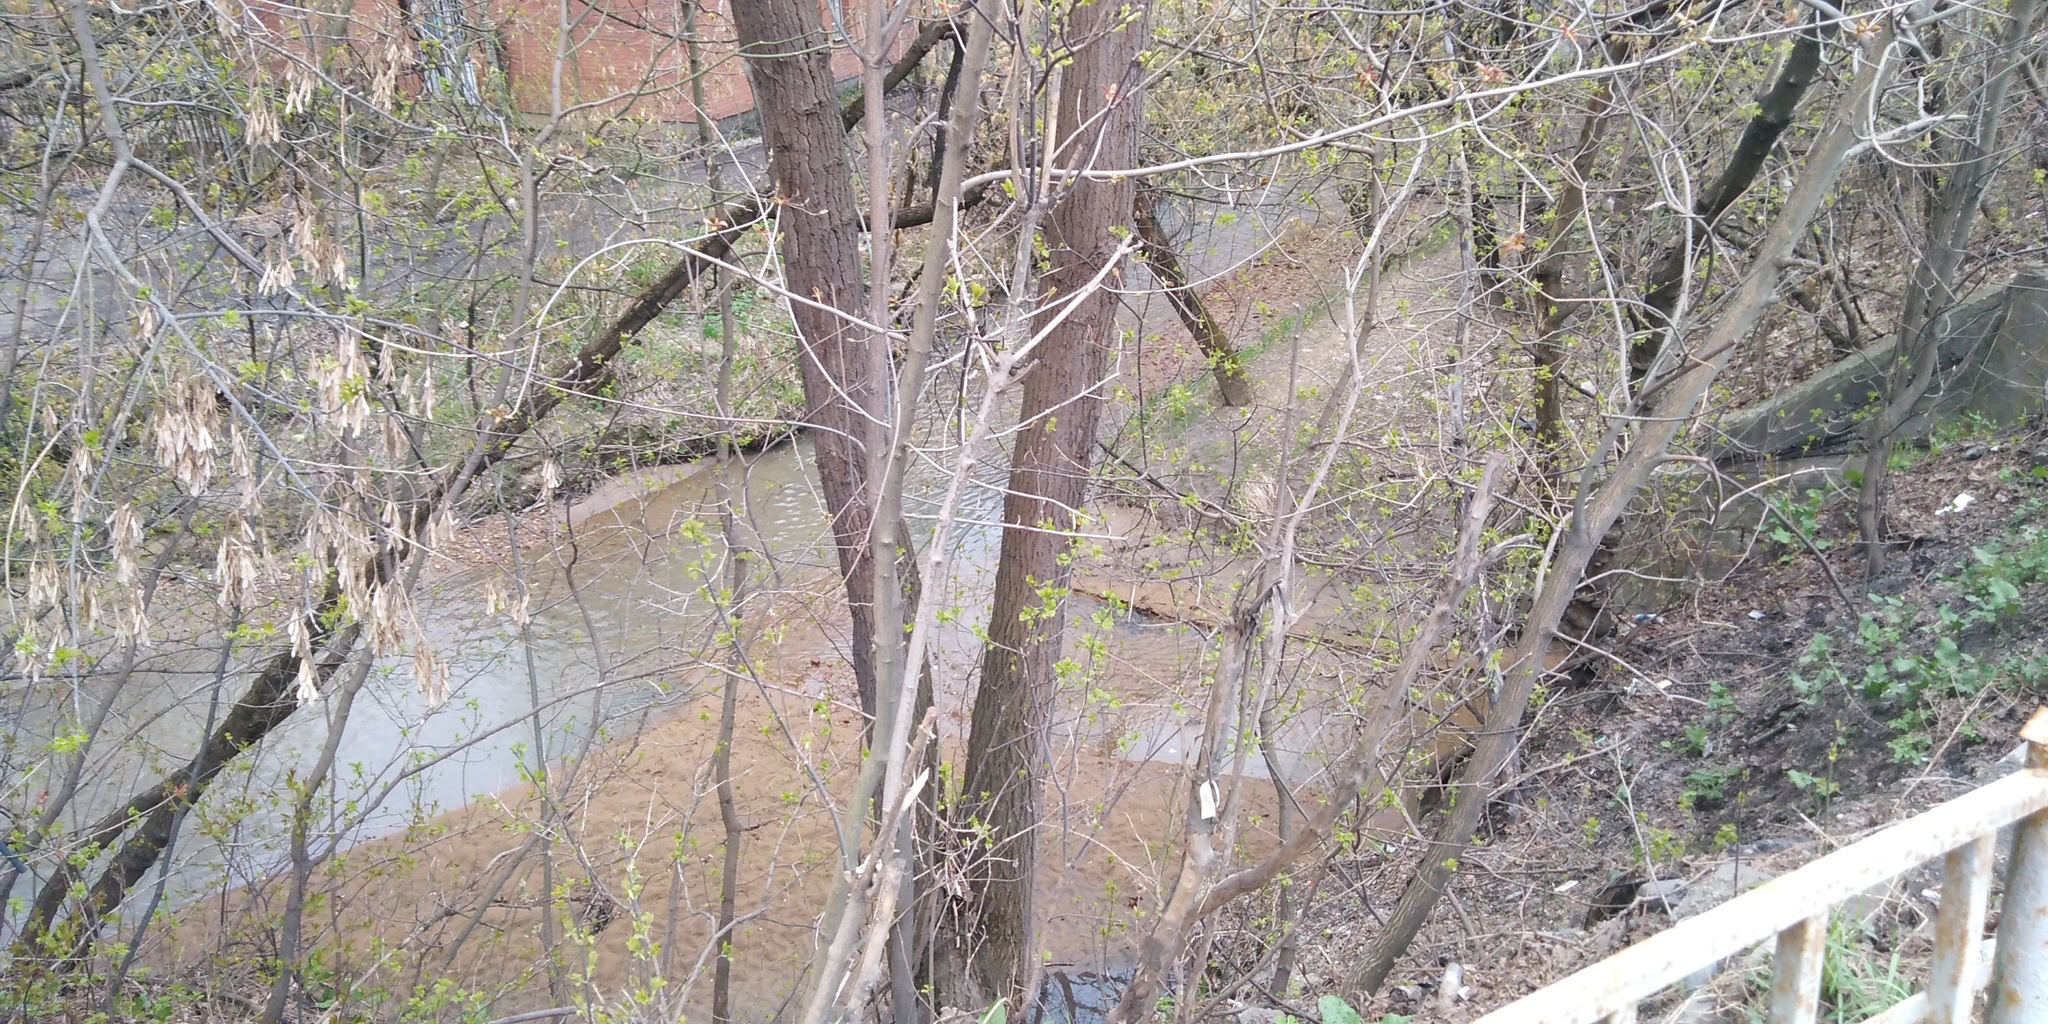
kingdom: Plantae
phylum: Tracheophyta
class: Magnoliopsida
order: Sapindales
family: Sapindaceae
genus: Acer
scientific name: Acer negundo
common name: Ashleaf maple
